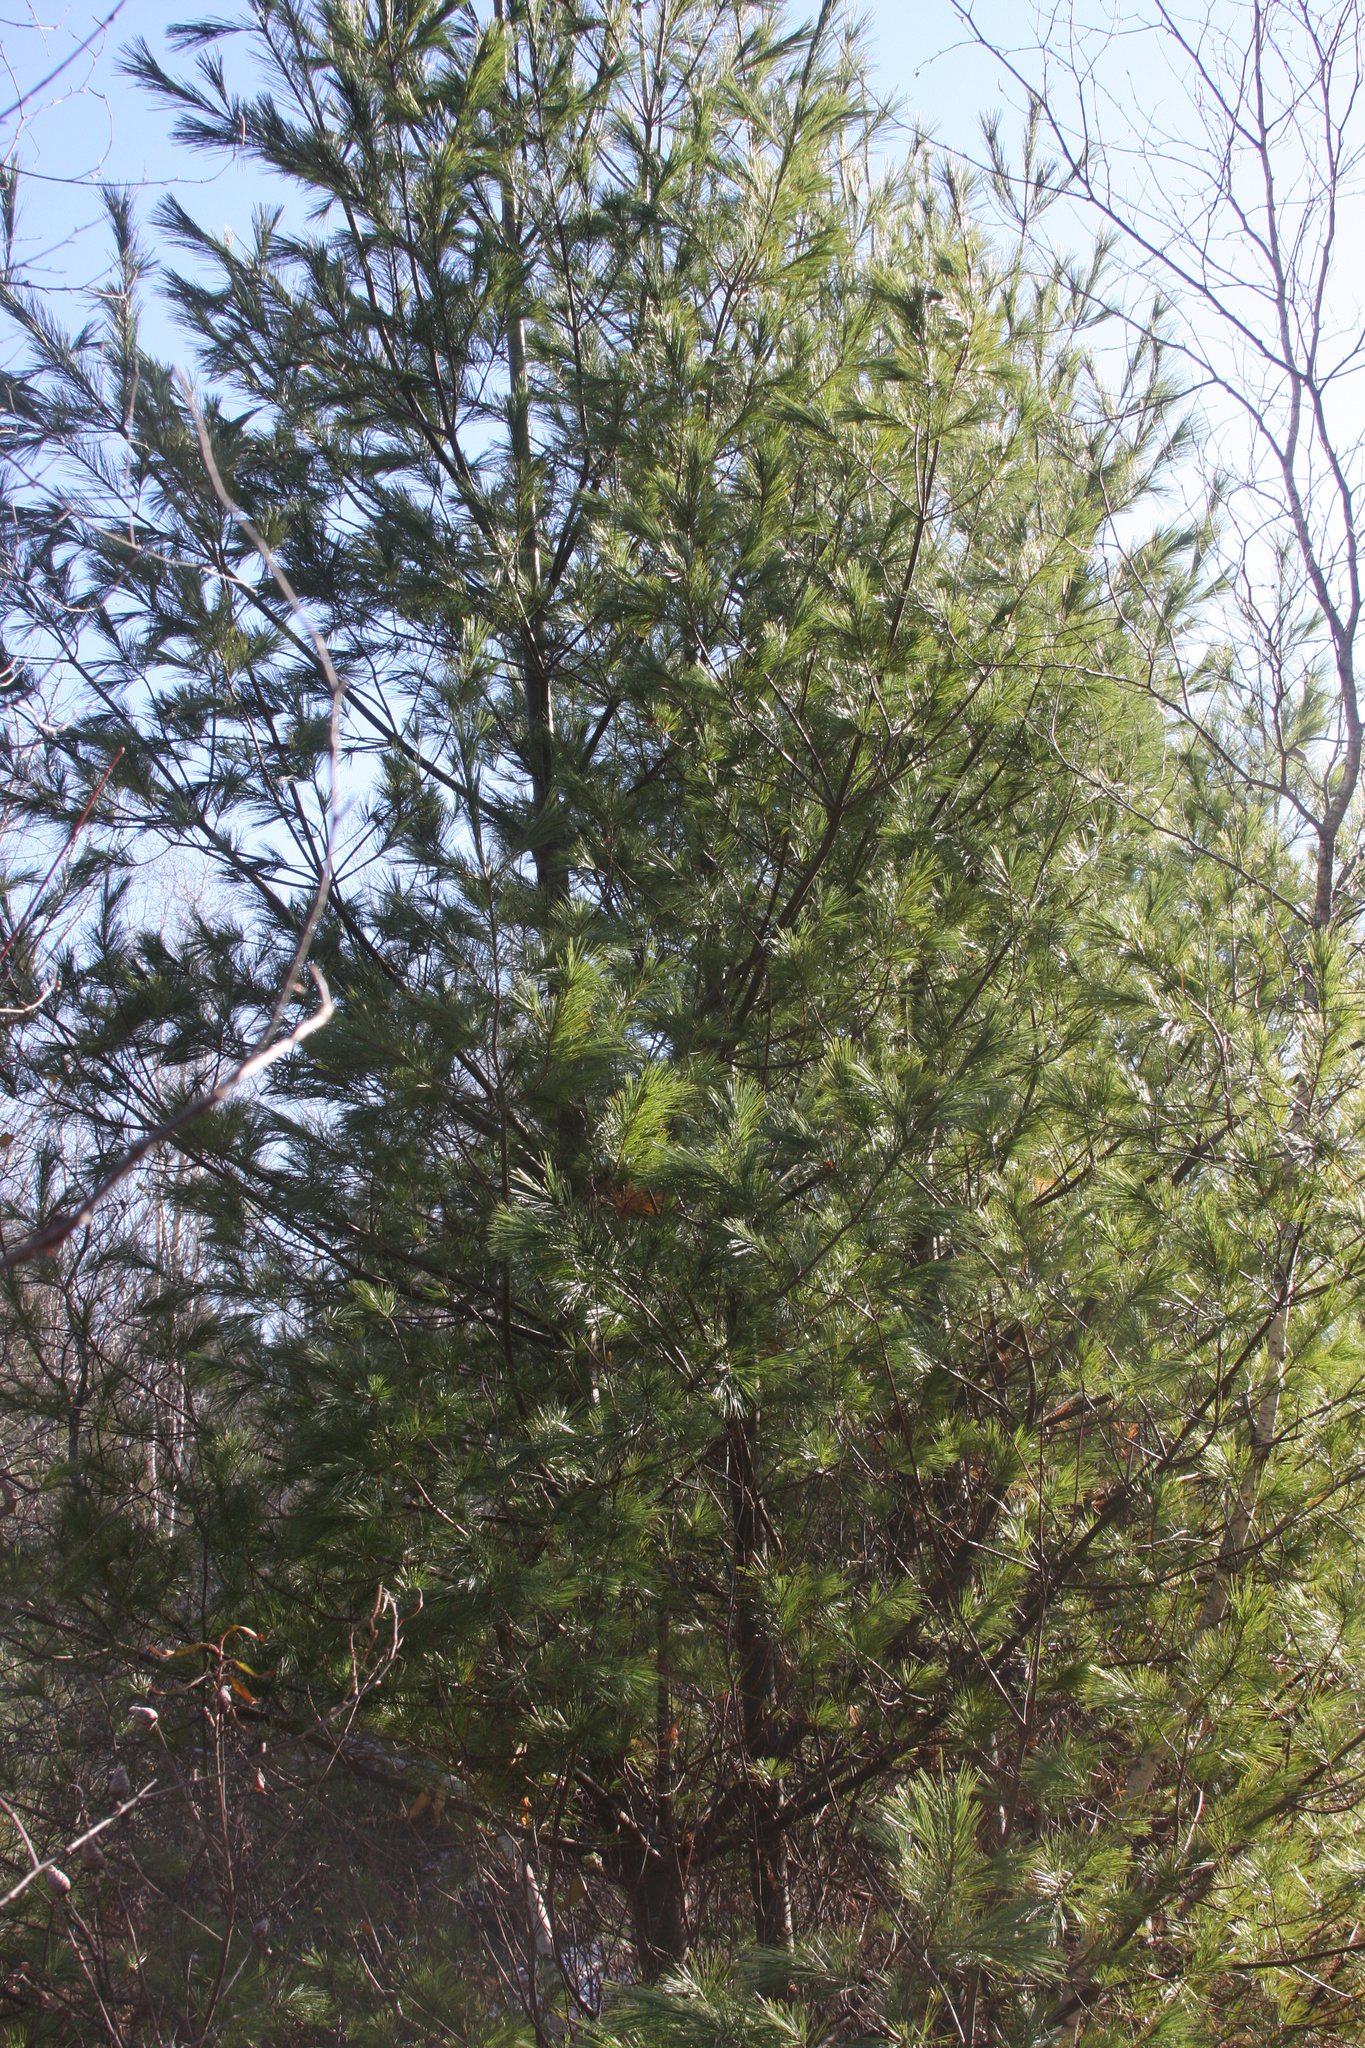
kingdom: Plantae
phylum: Tracheophyta
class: Pinopsida
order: Pinales
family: Pinaceae
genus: Pinus
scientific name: Pinus strobus
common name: Weymouth pine
